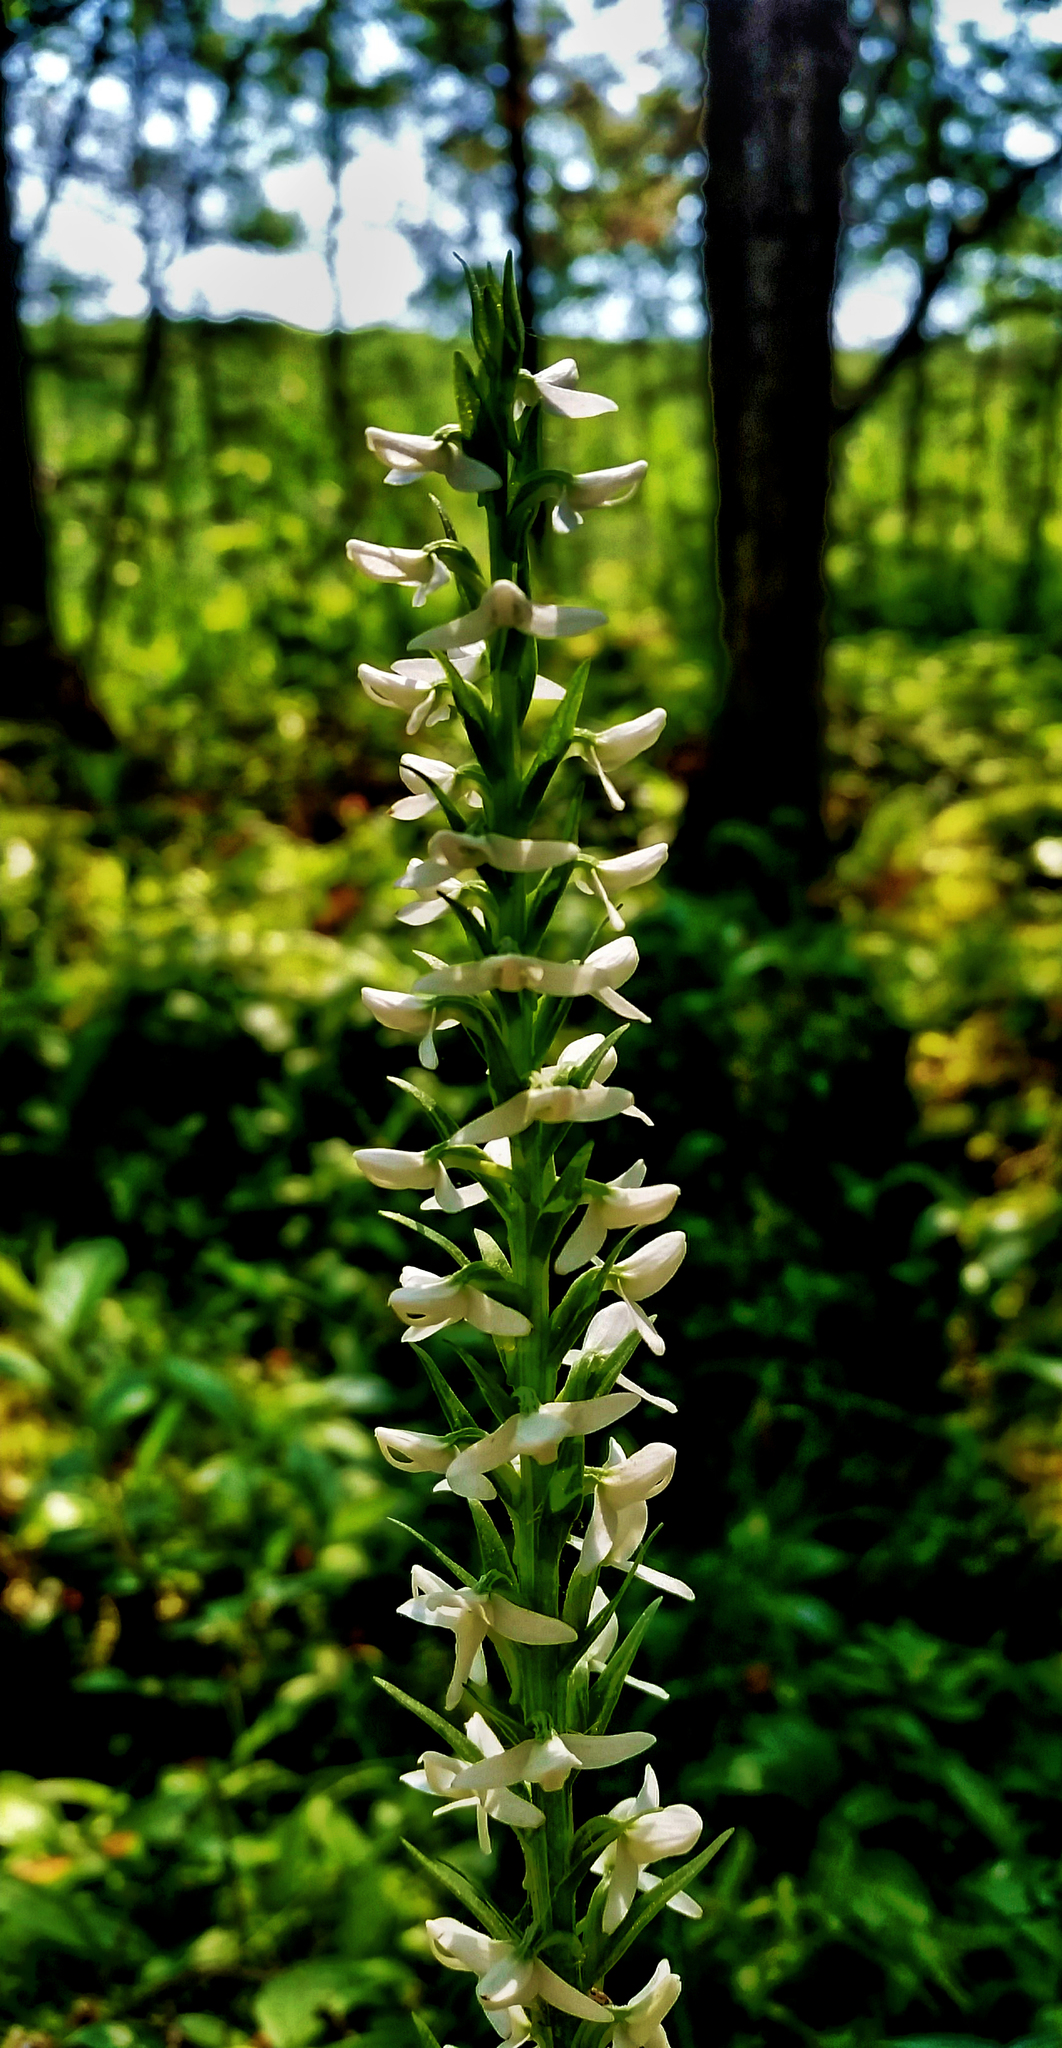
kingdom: Plantae
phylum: Tracheophyta
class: Liliopsida
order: Asparagales
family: Orchidaceae
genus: Platanthera
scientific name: Platanthera dilatata
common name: Bog candles
